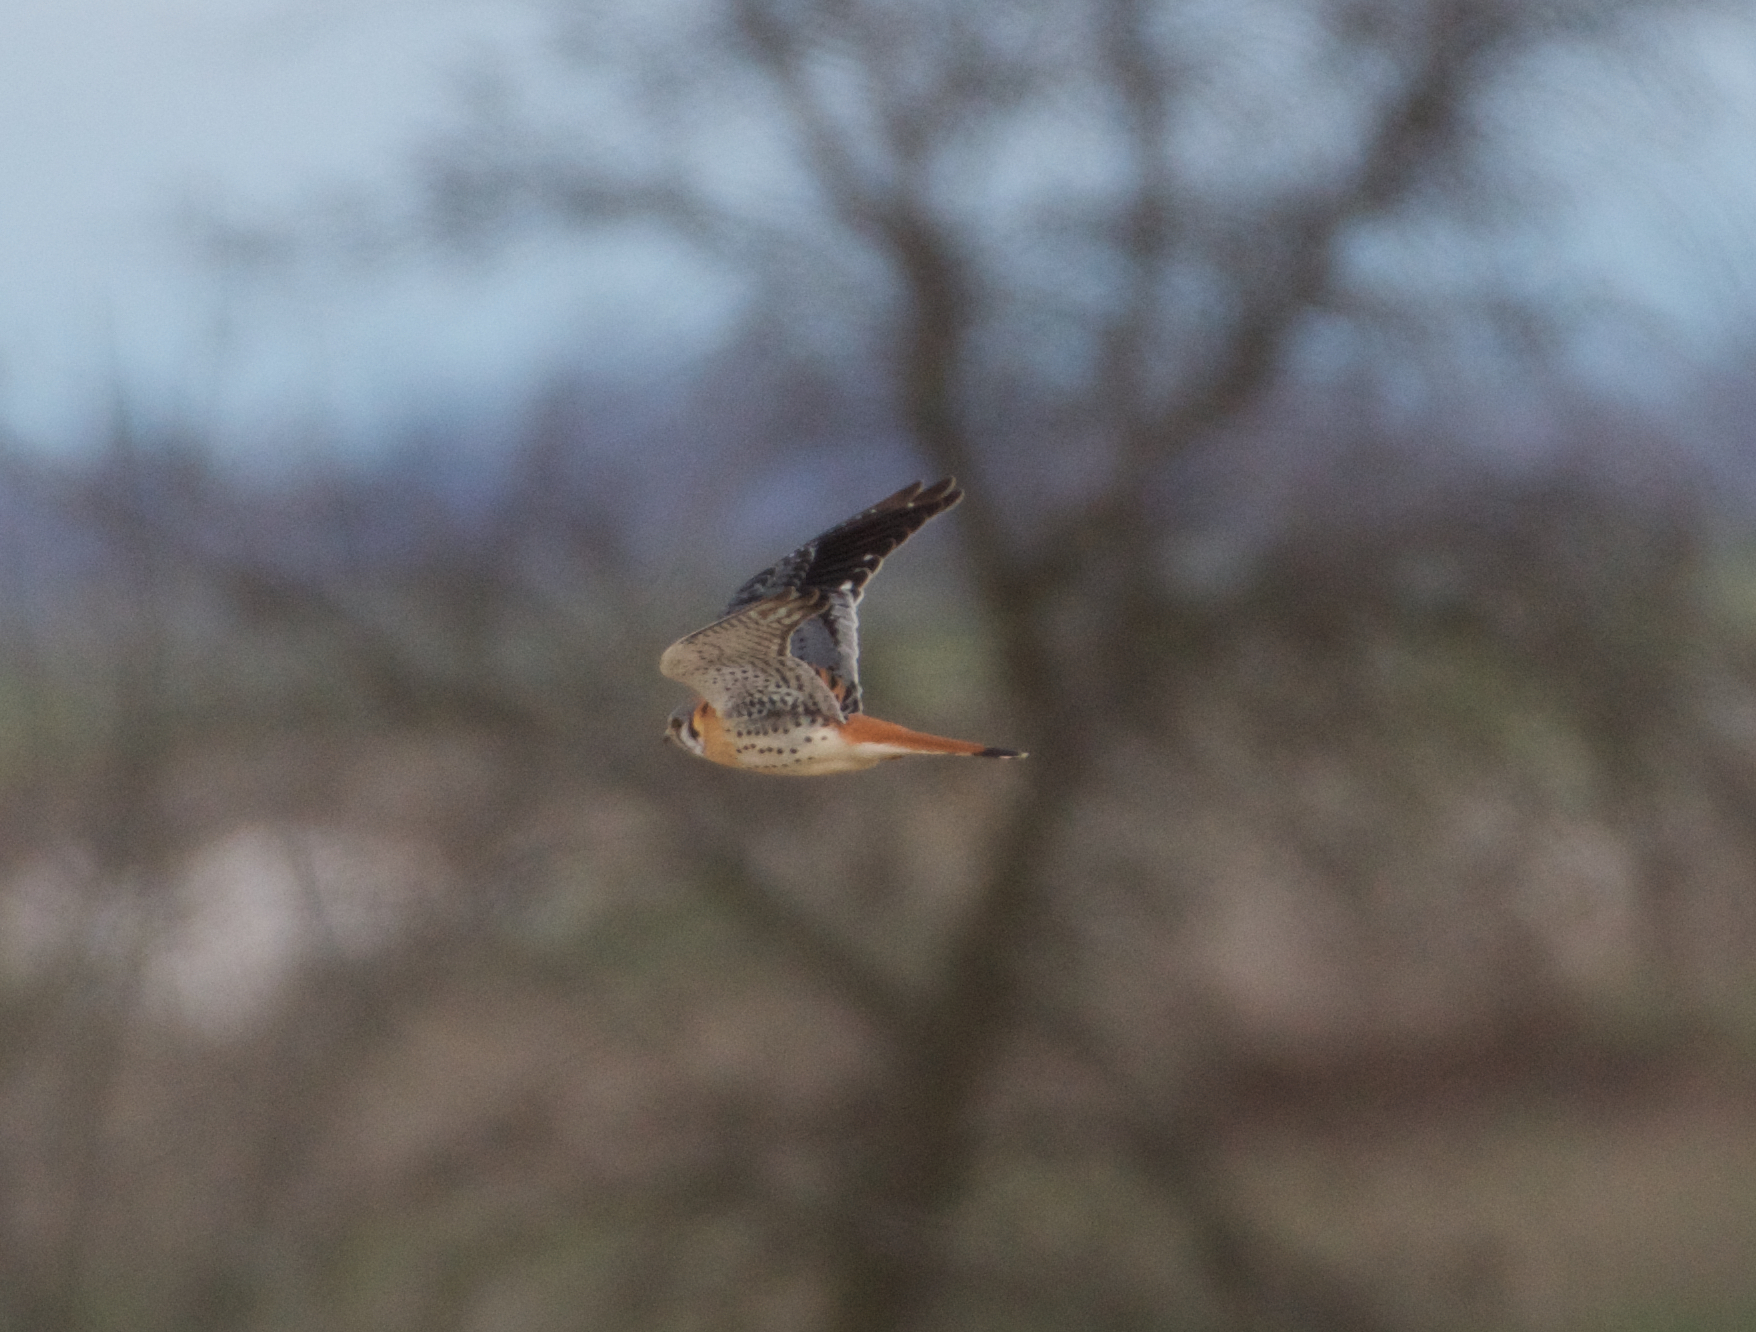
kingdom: Animalia
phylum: Chordata
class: Aves
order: Falconiformes
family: Falconidae
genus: Falco
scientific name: Falco sparverius
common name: American kestrel
